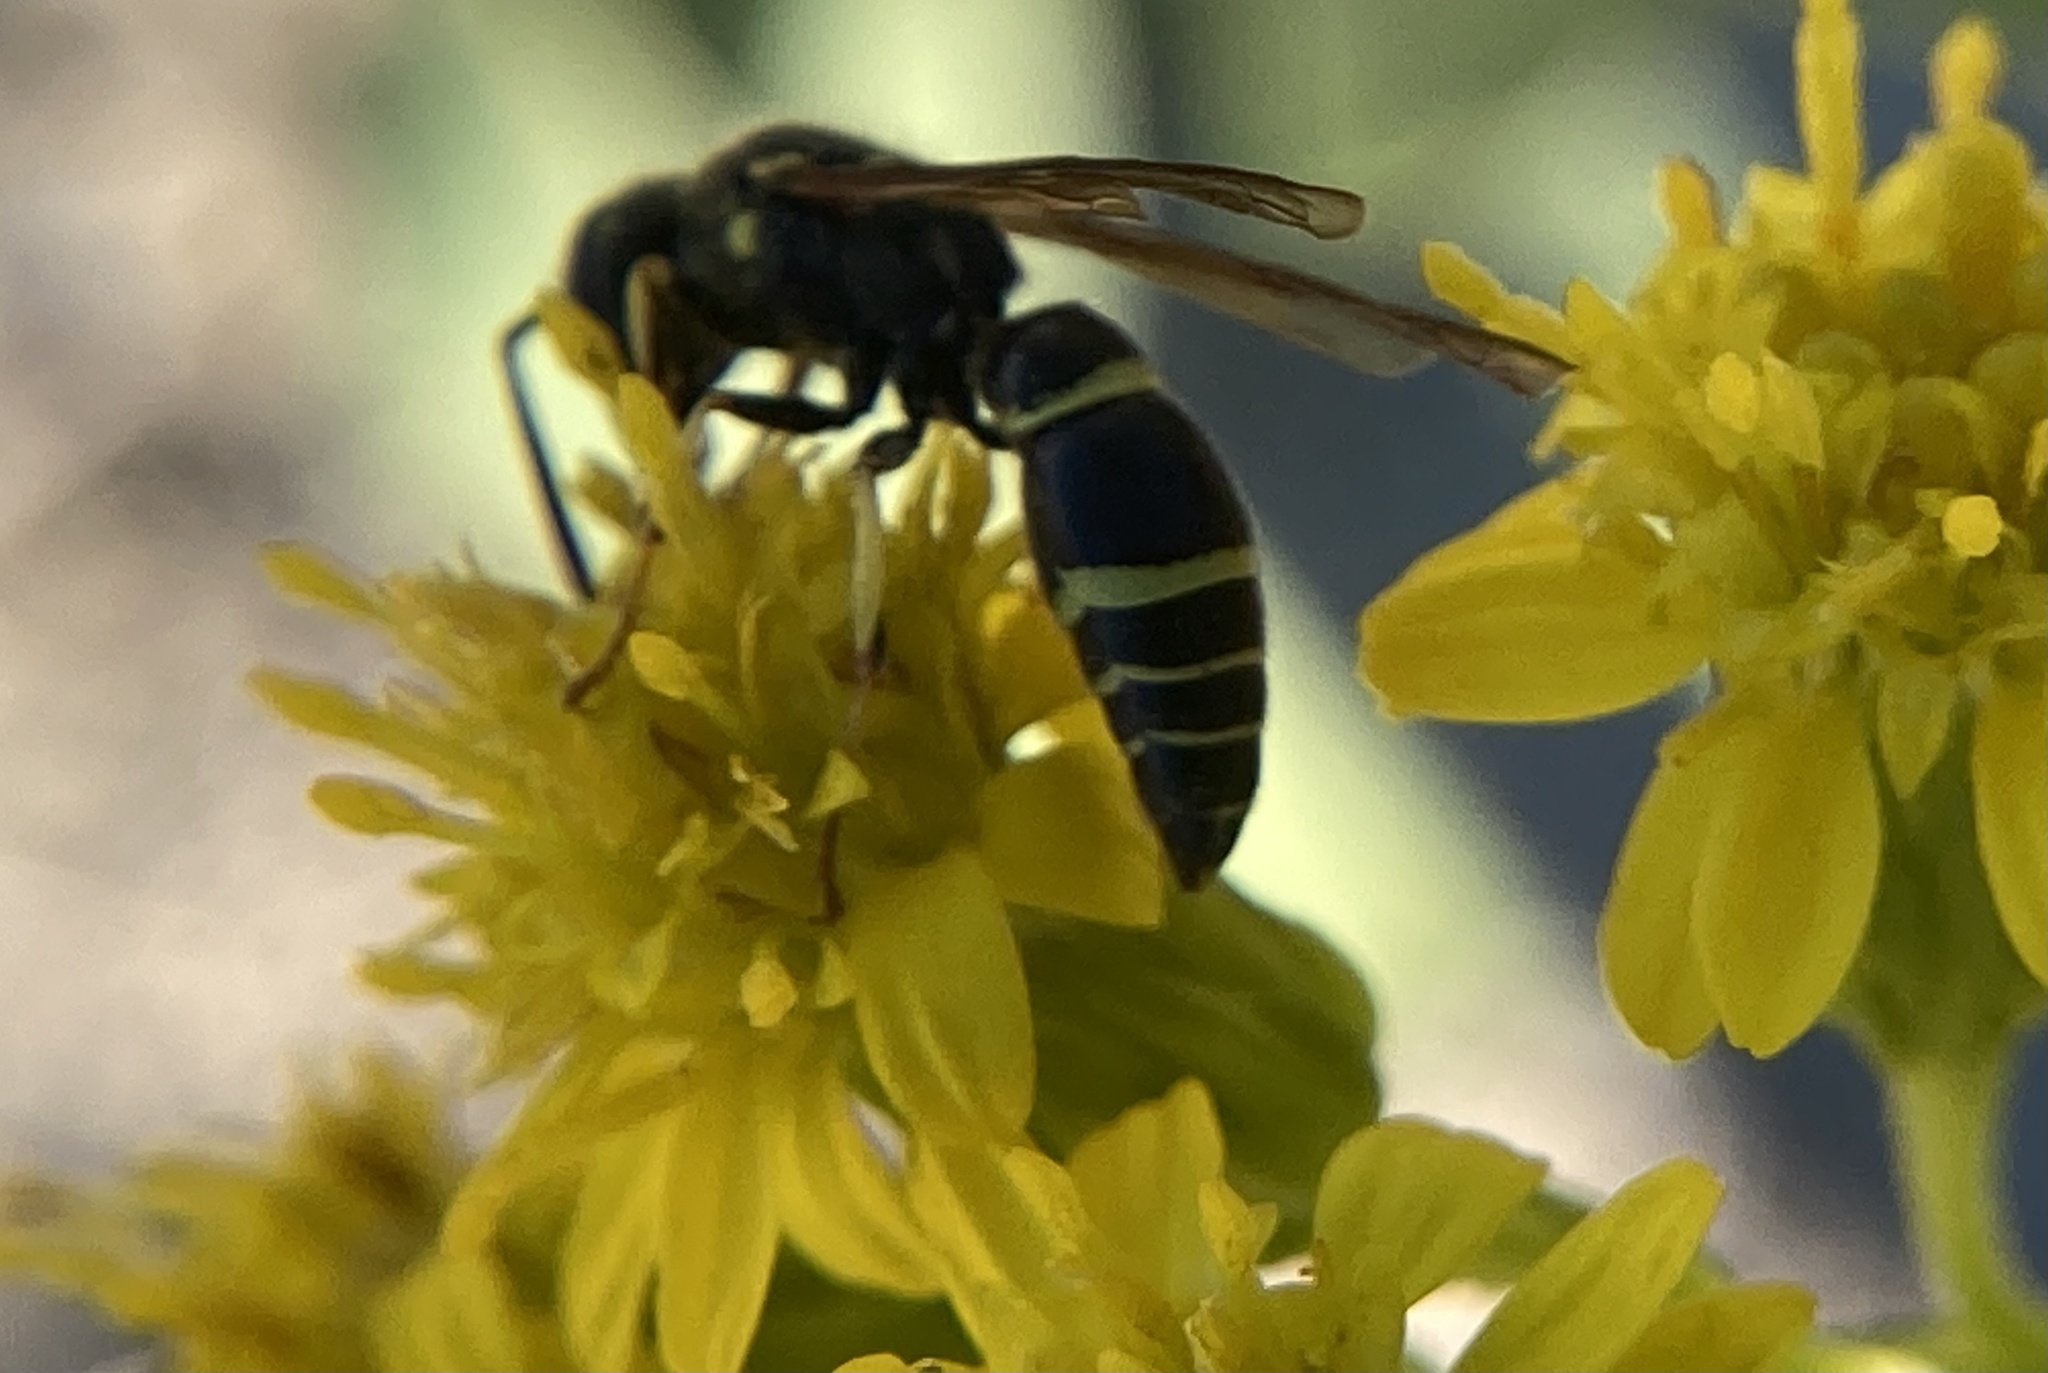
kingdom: Animalia
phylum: Arthropoda
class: Insecta
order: Hymenoptera
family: Vespidae
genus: Ancistrocerus
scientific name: Ancistrocerus adiabatus
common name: Bramble mason wasp
